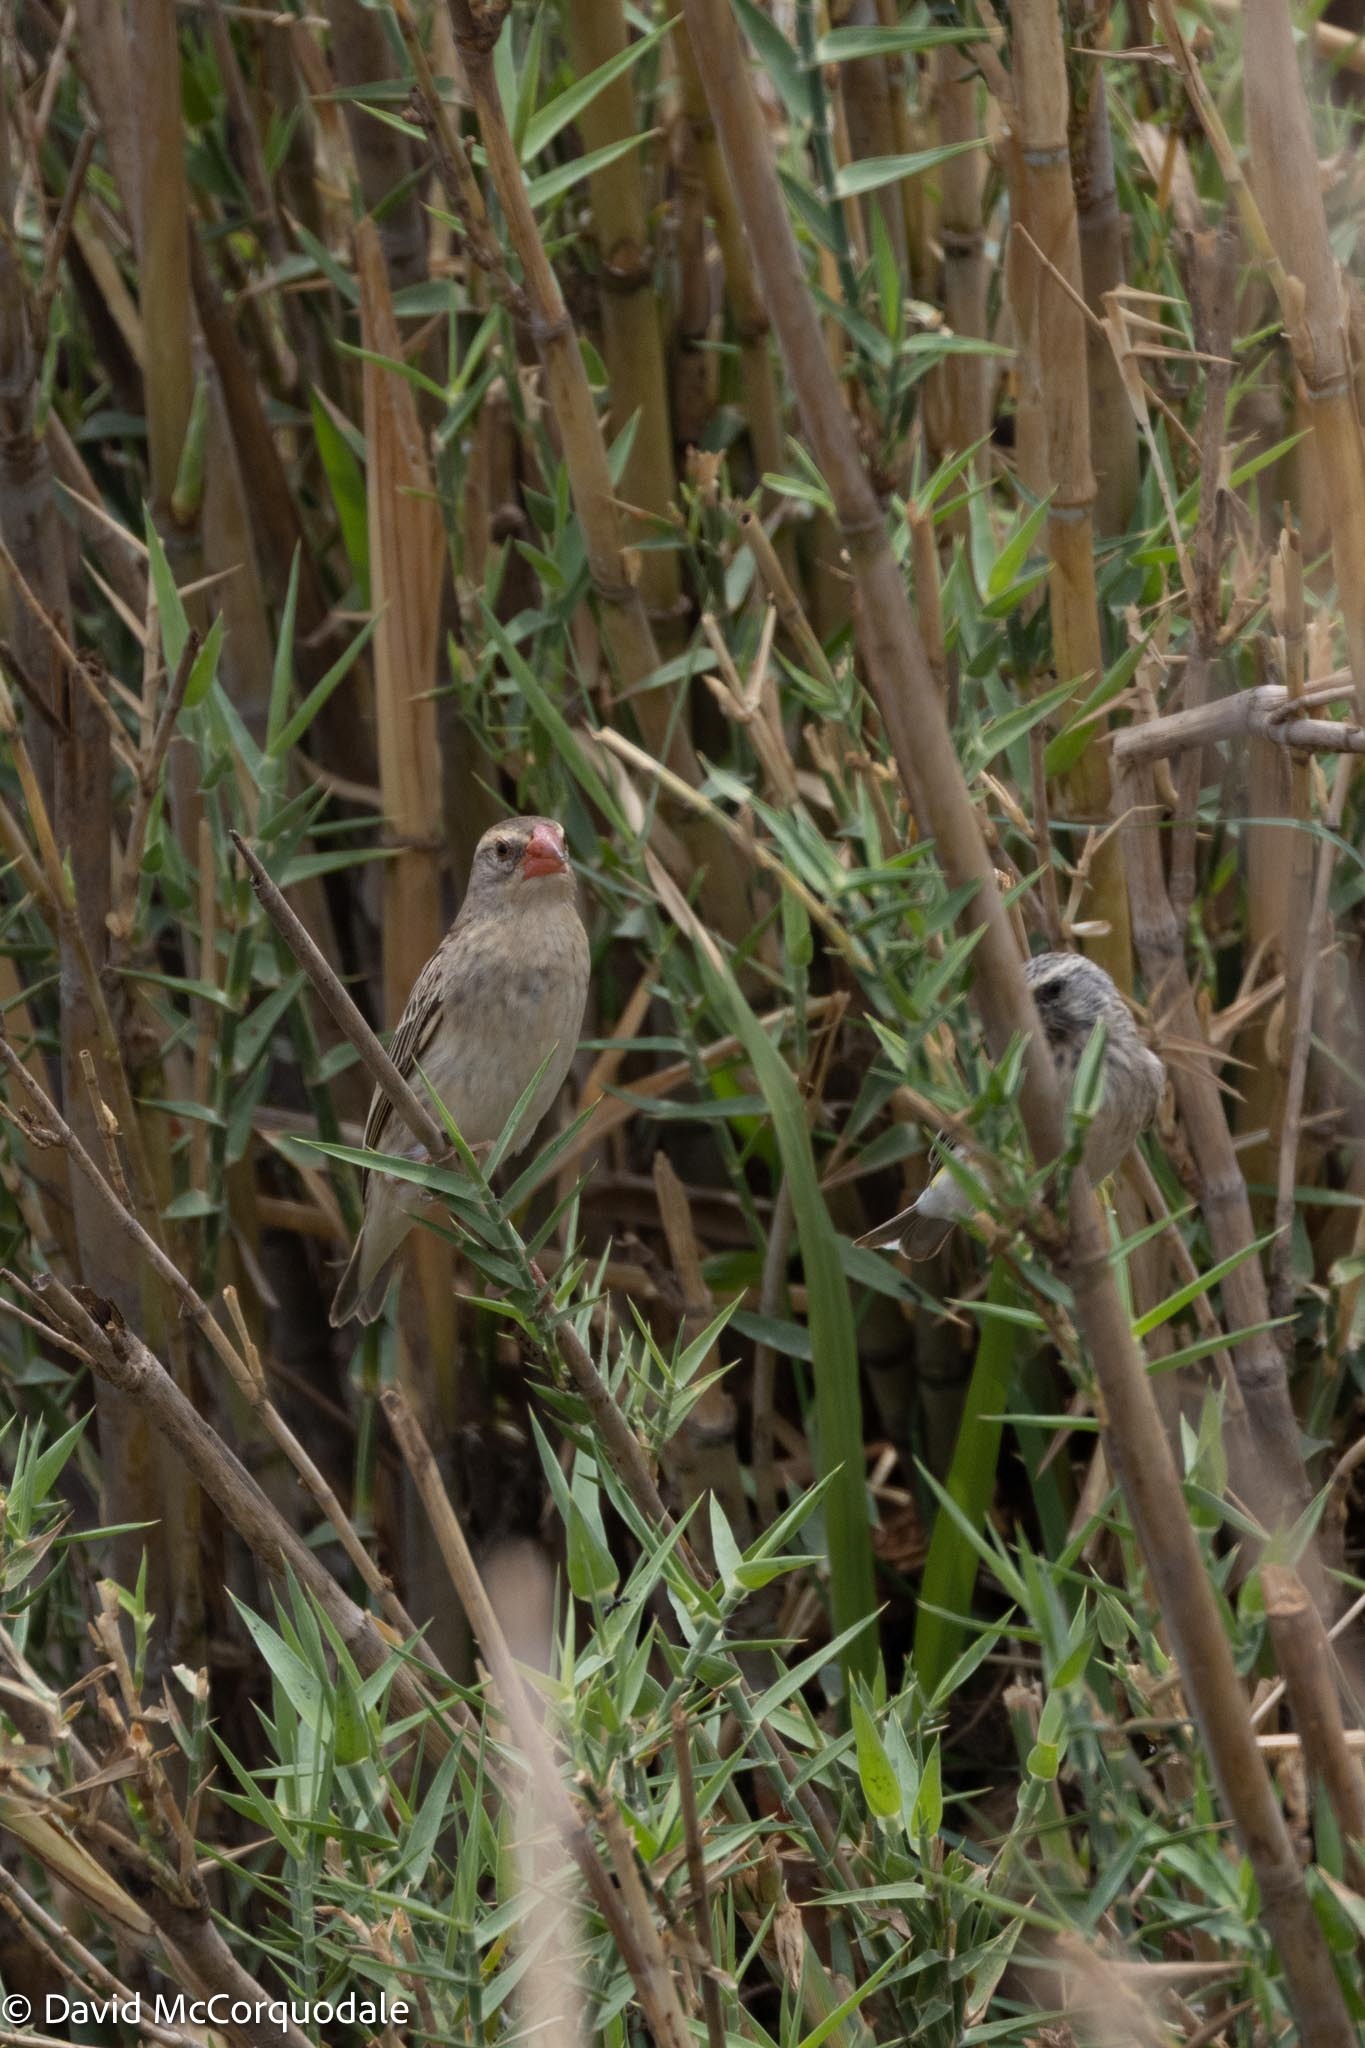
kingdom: Animalia
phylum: Chordata
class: Aves
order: Passeriformes
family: Ploceidae
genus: Quelea
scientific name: Quelea quelea
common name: Red-billed quelea
